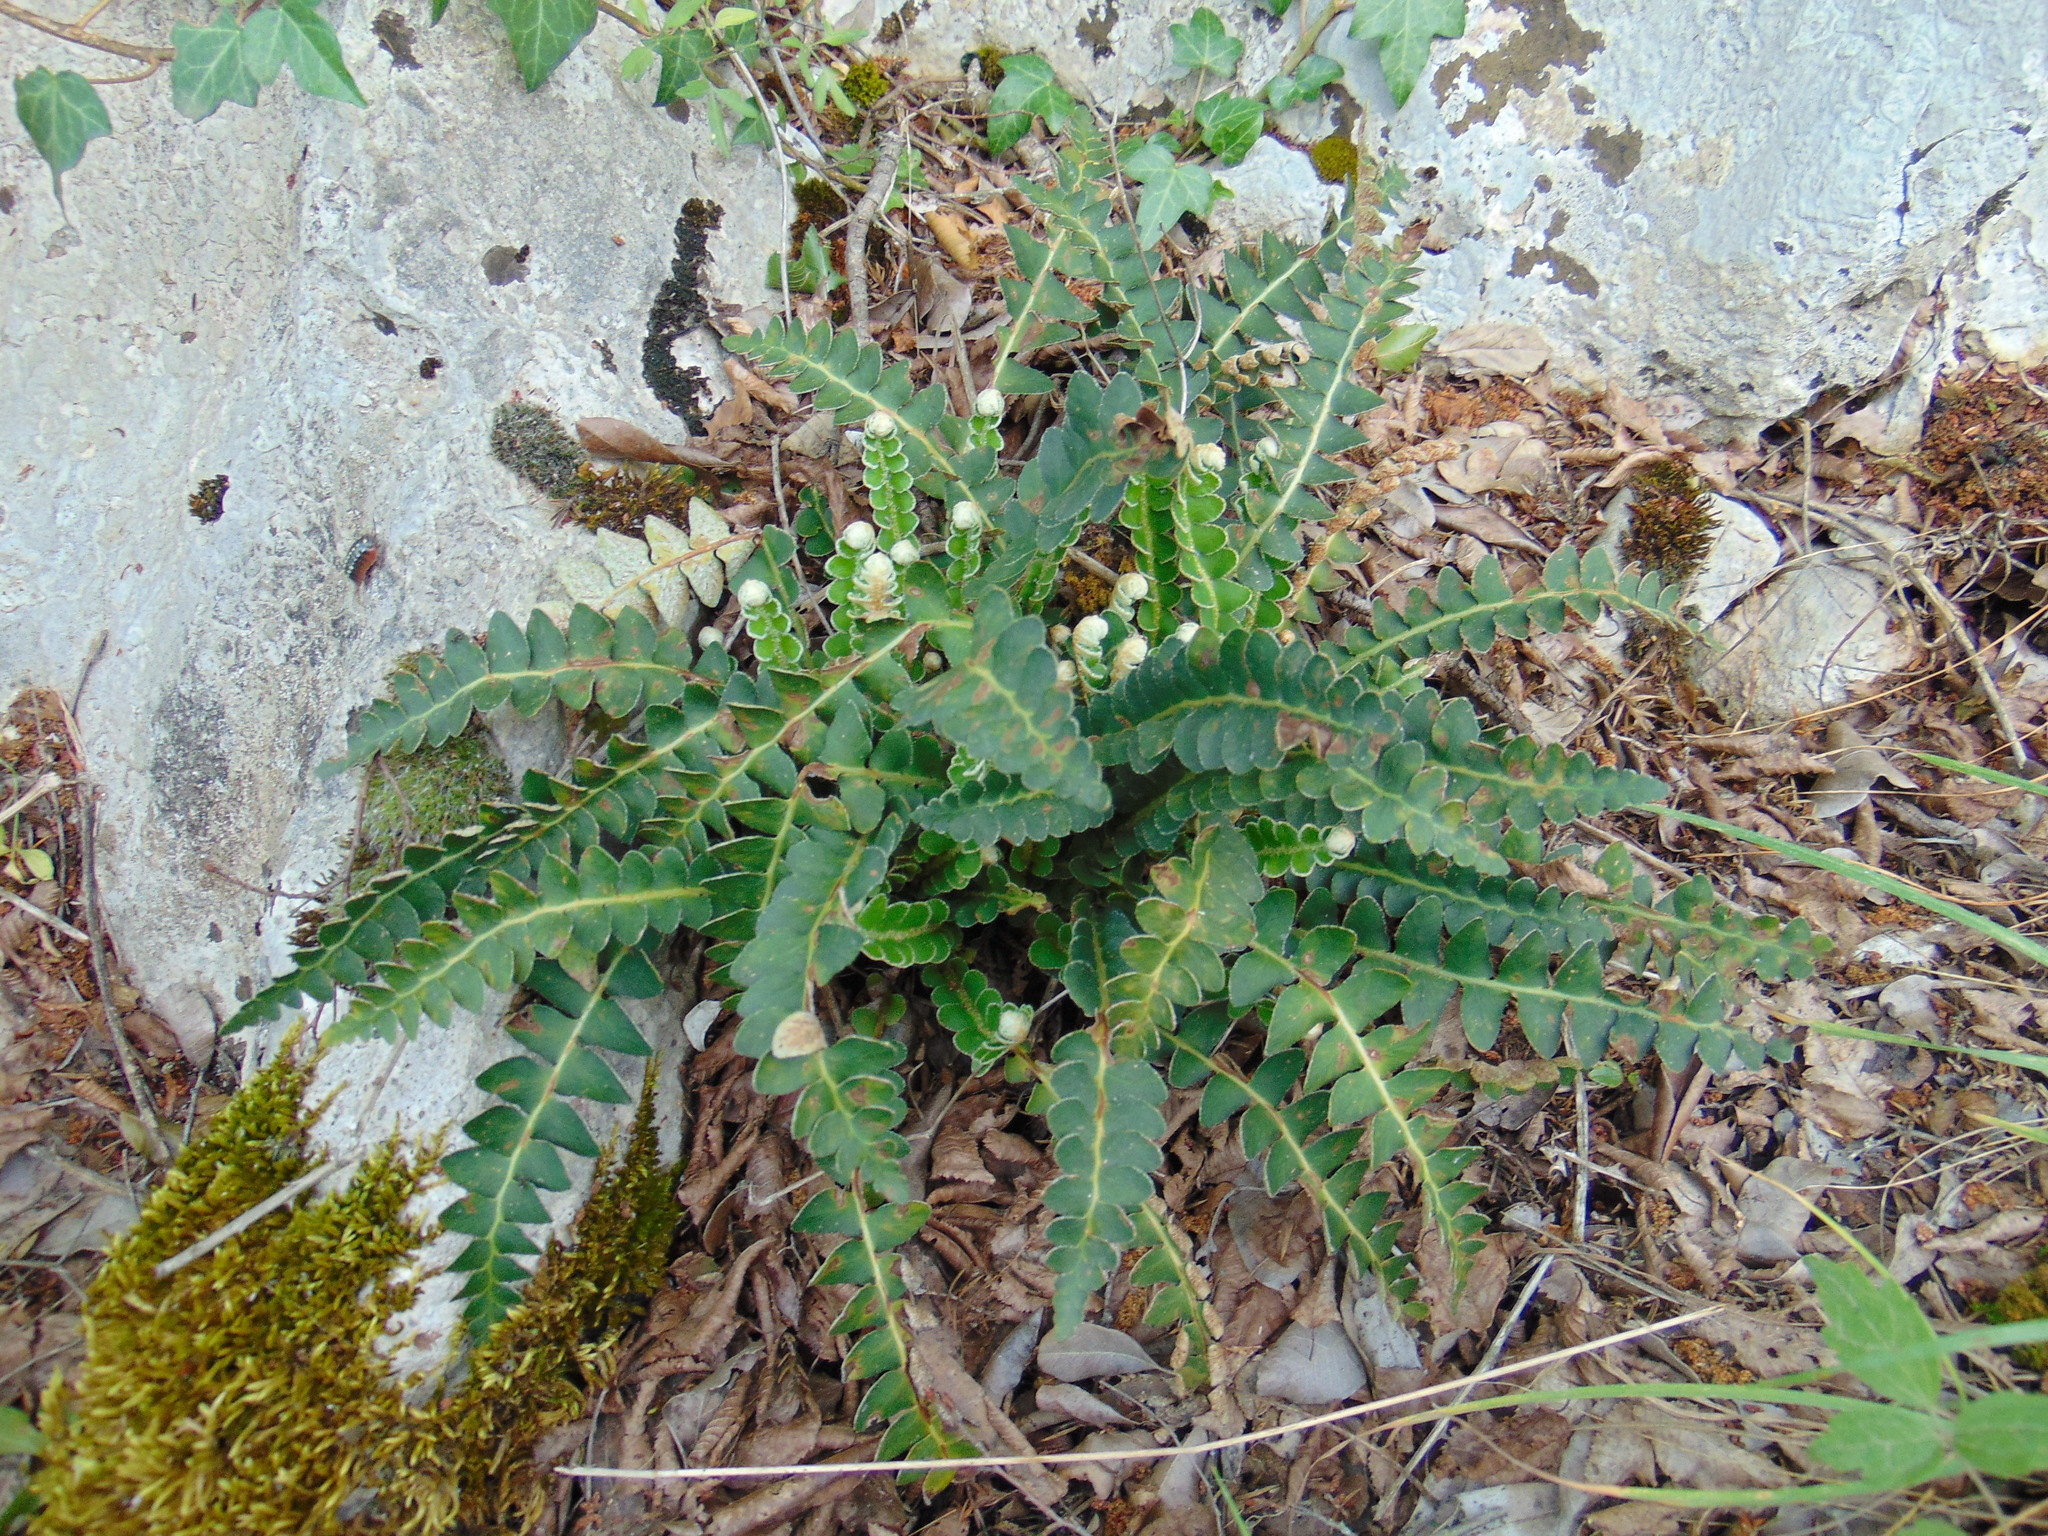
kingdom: Plantae
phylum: Tracheophyta
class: Polypodiopsida
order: Polypodiales
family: Aspleniaceae
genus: Asplenium
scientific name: Asplenium ceterach
